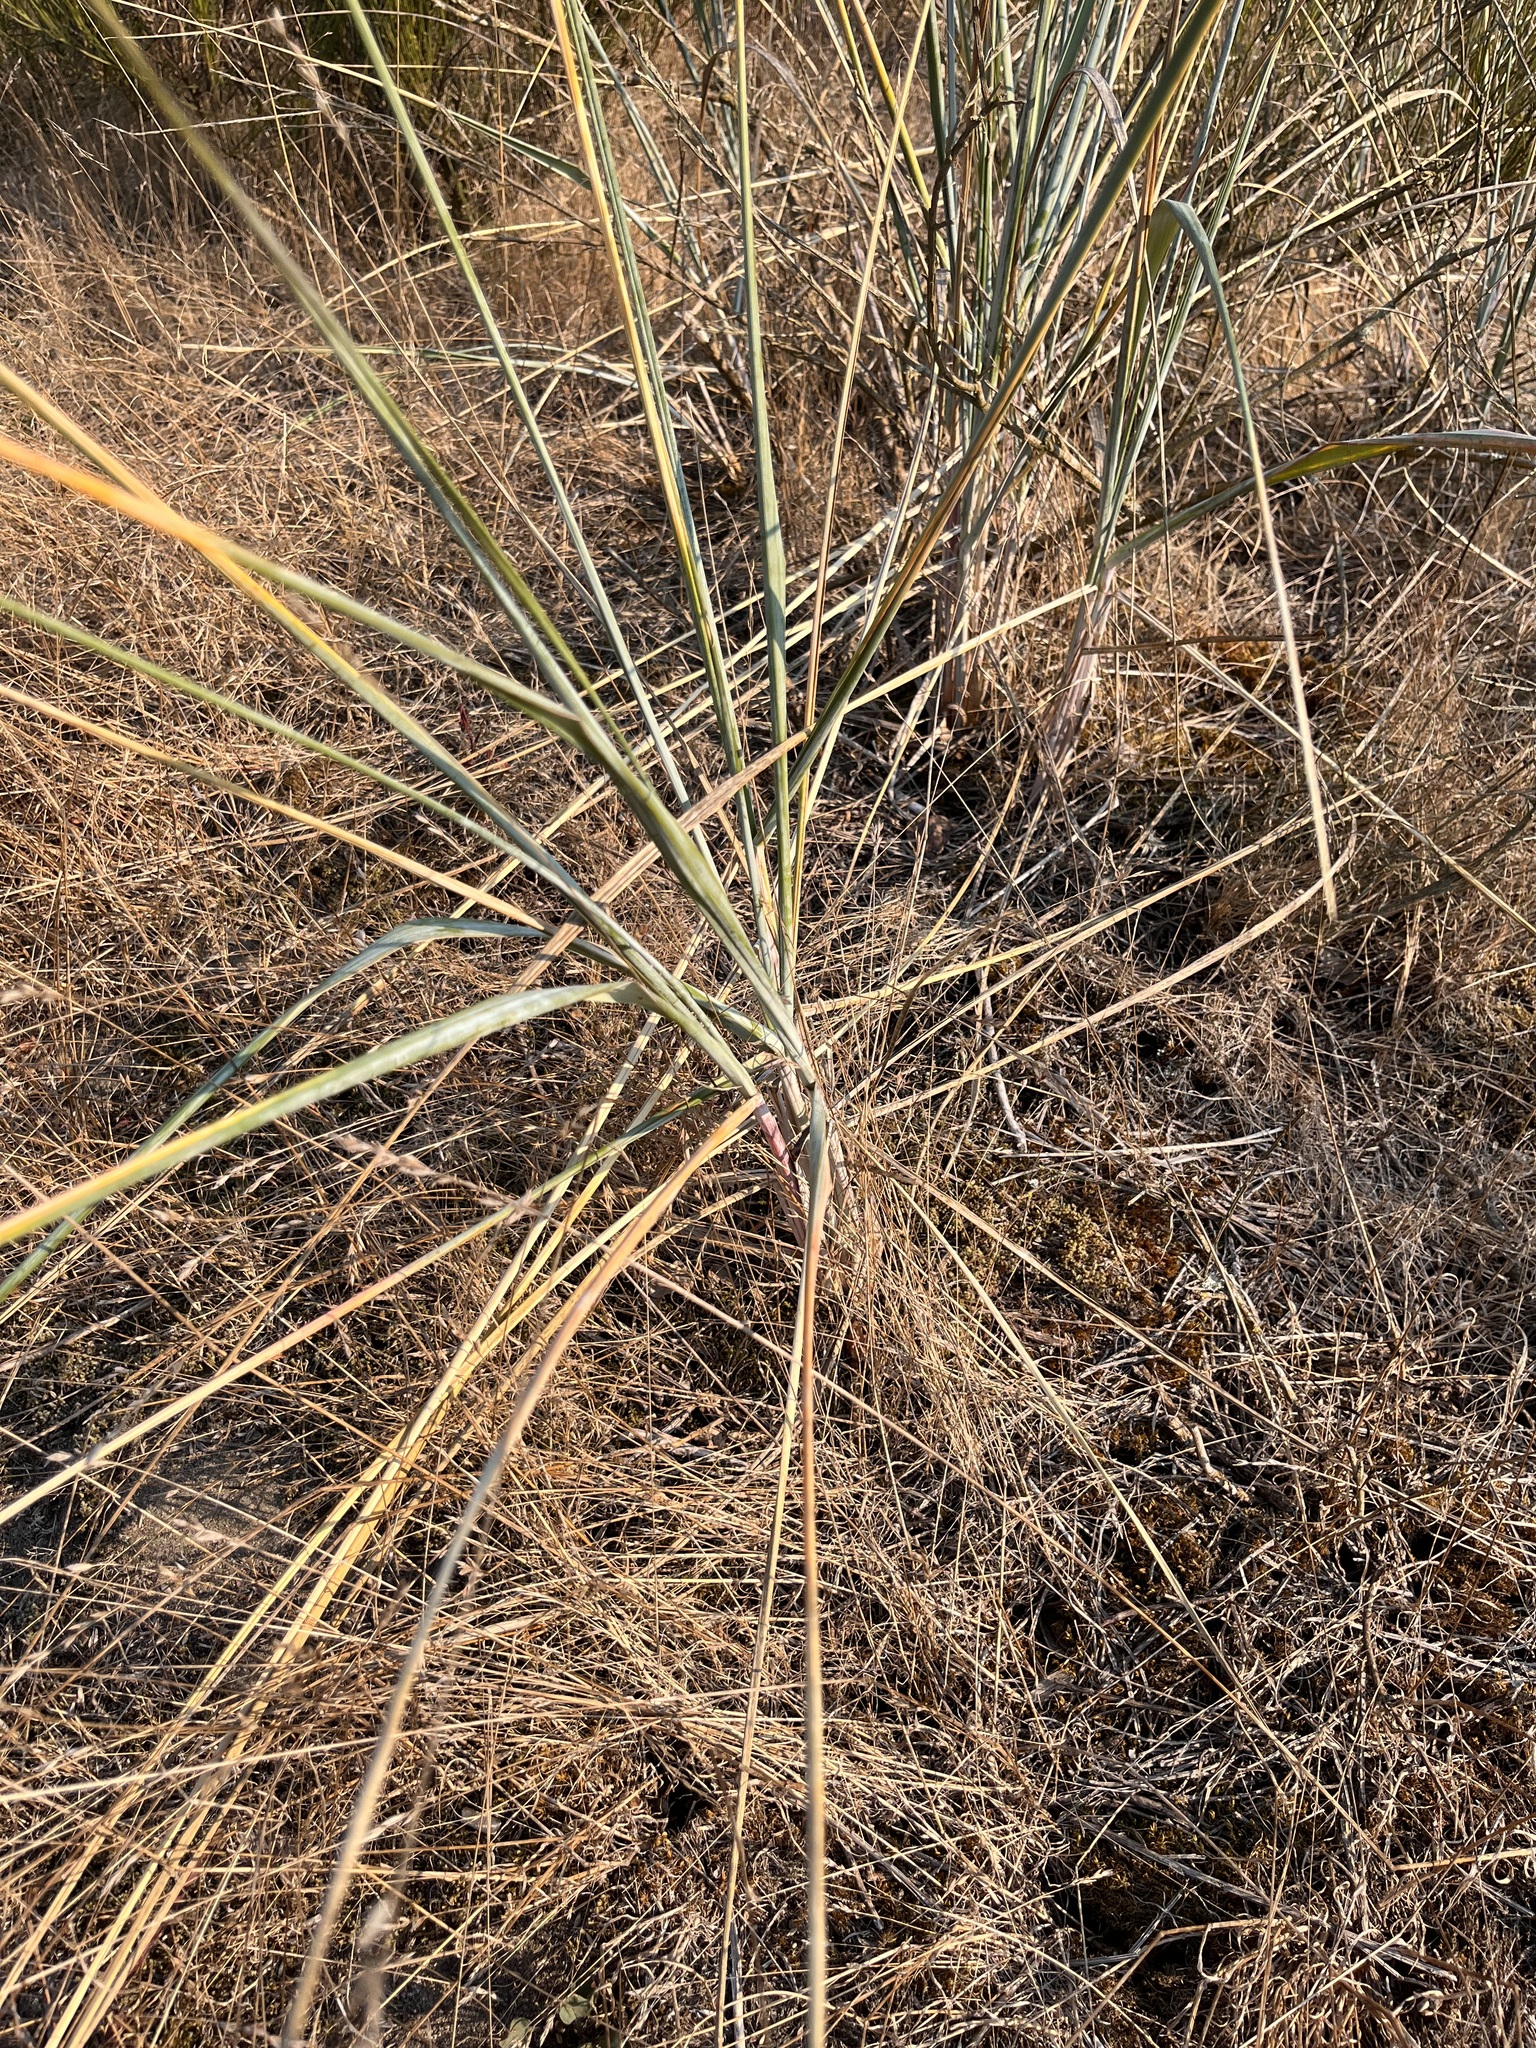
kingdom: Plantae
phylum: Tracheophyta
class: Liliopsida
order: Poales
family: Poaceae
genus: Leymus
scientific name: Leymus mollis
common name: American dune grass
